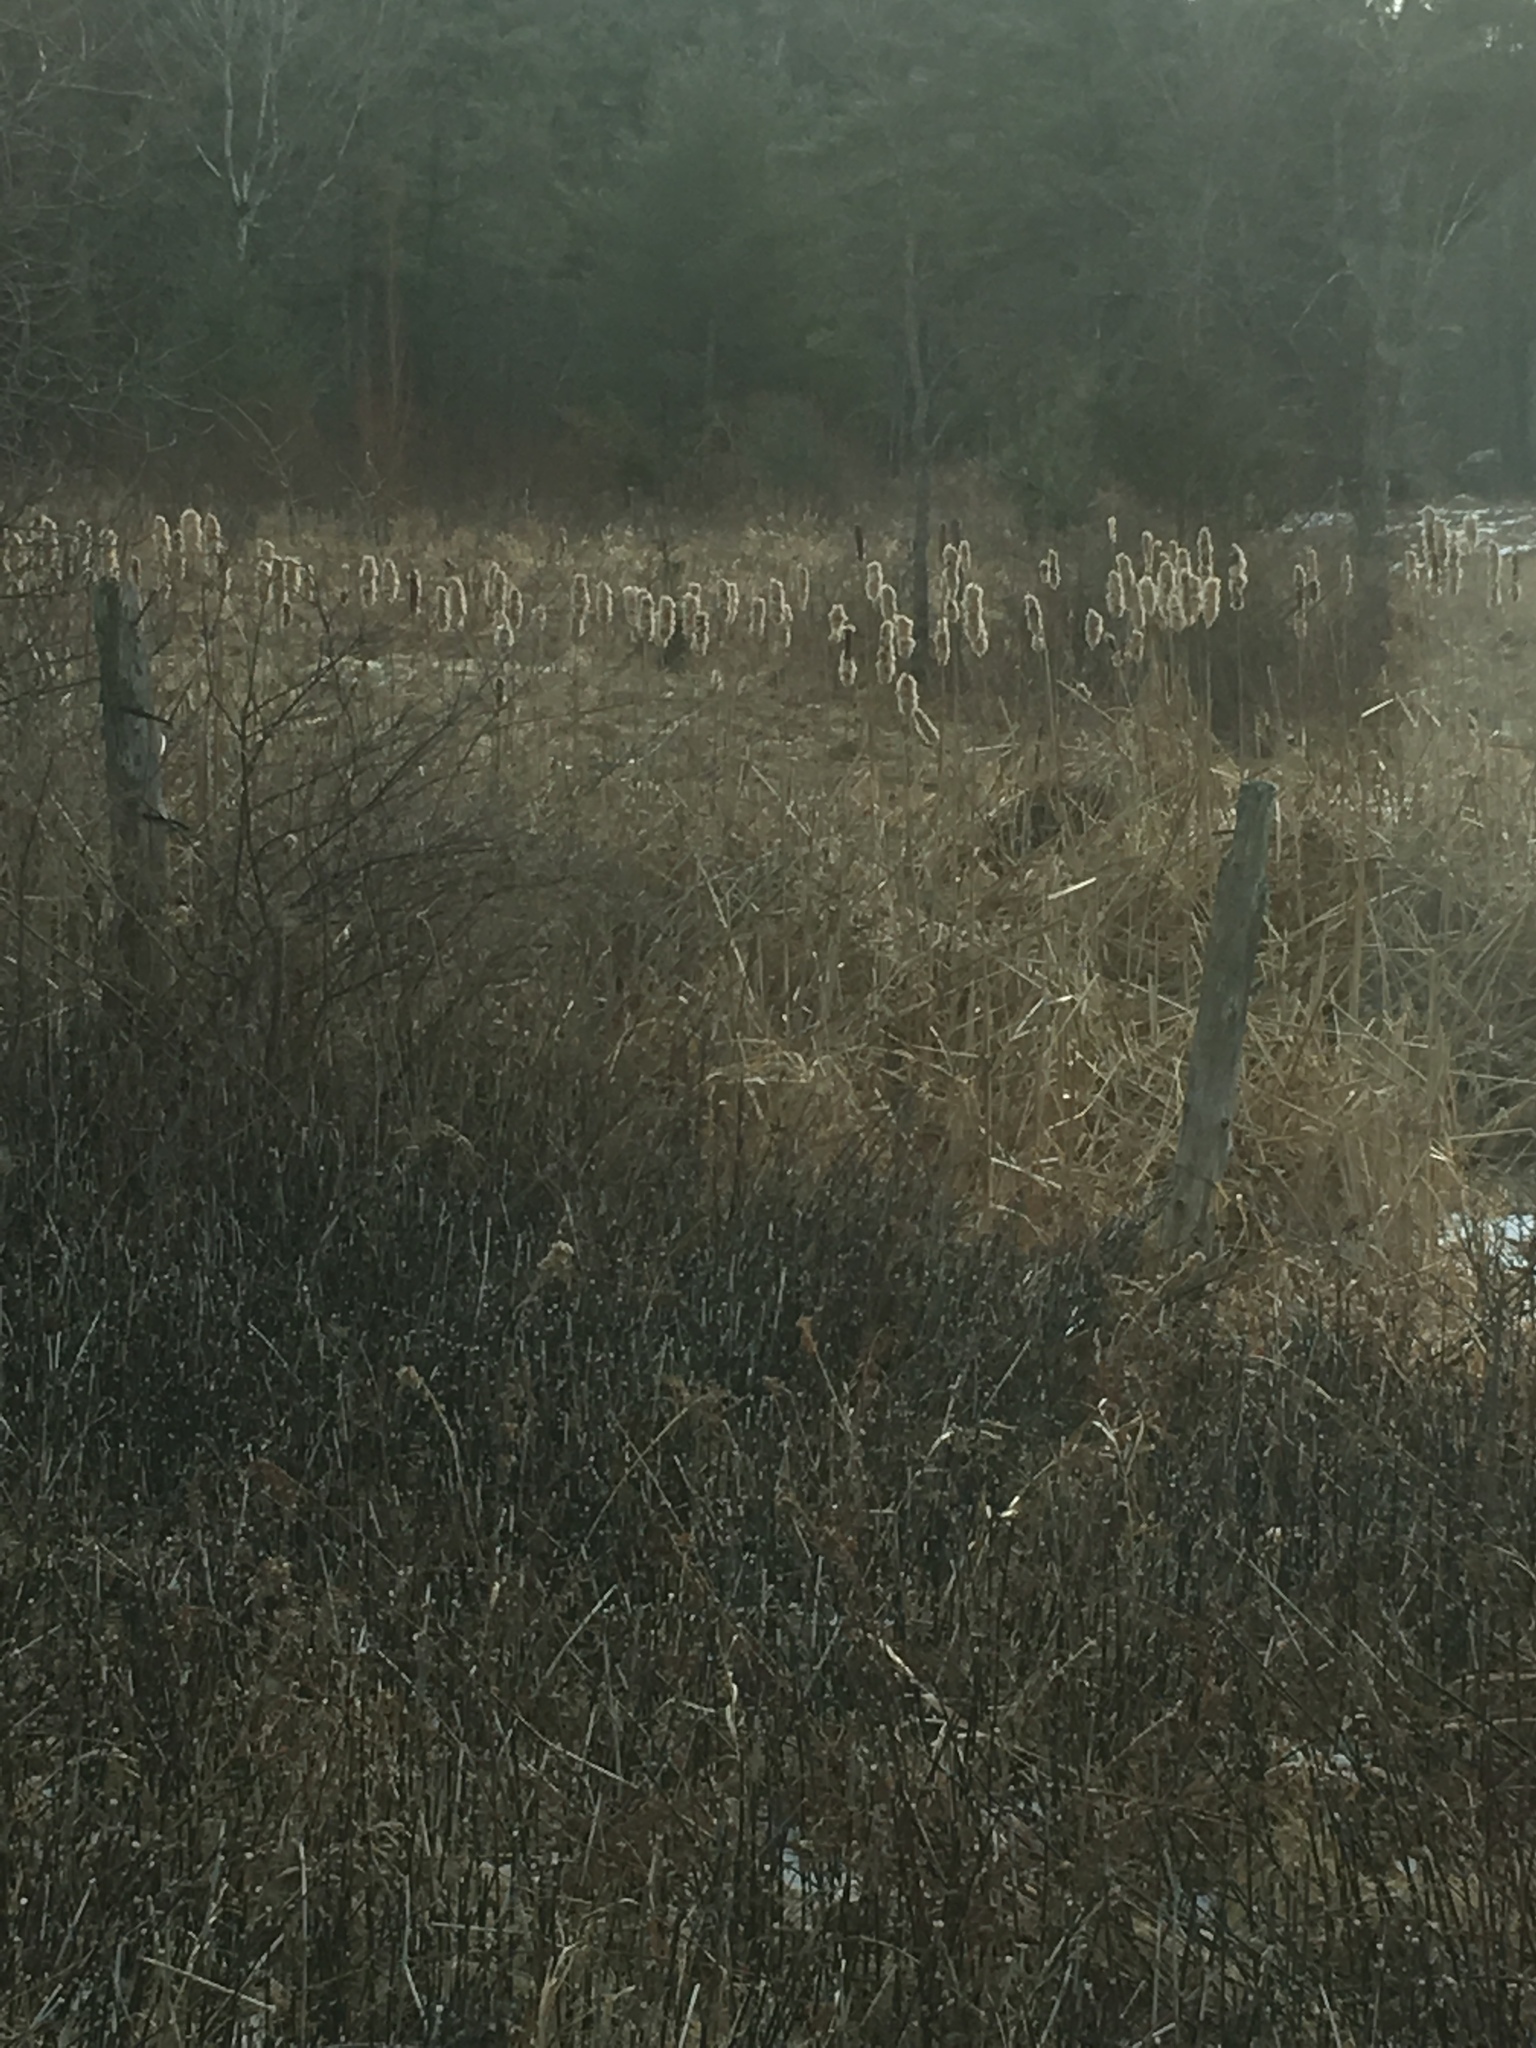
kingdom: Plantae
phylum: Tracheophyta
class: Liliopsida
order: Poales
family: Typhaceae
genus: Typha
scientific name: Typha
